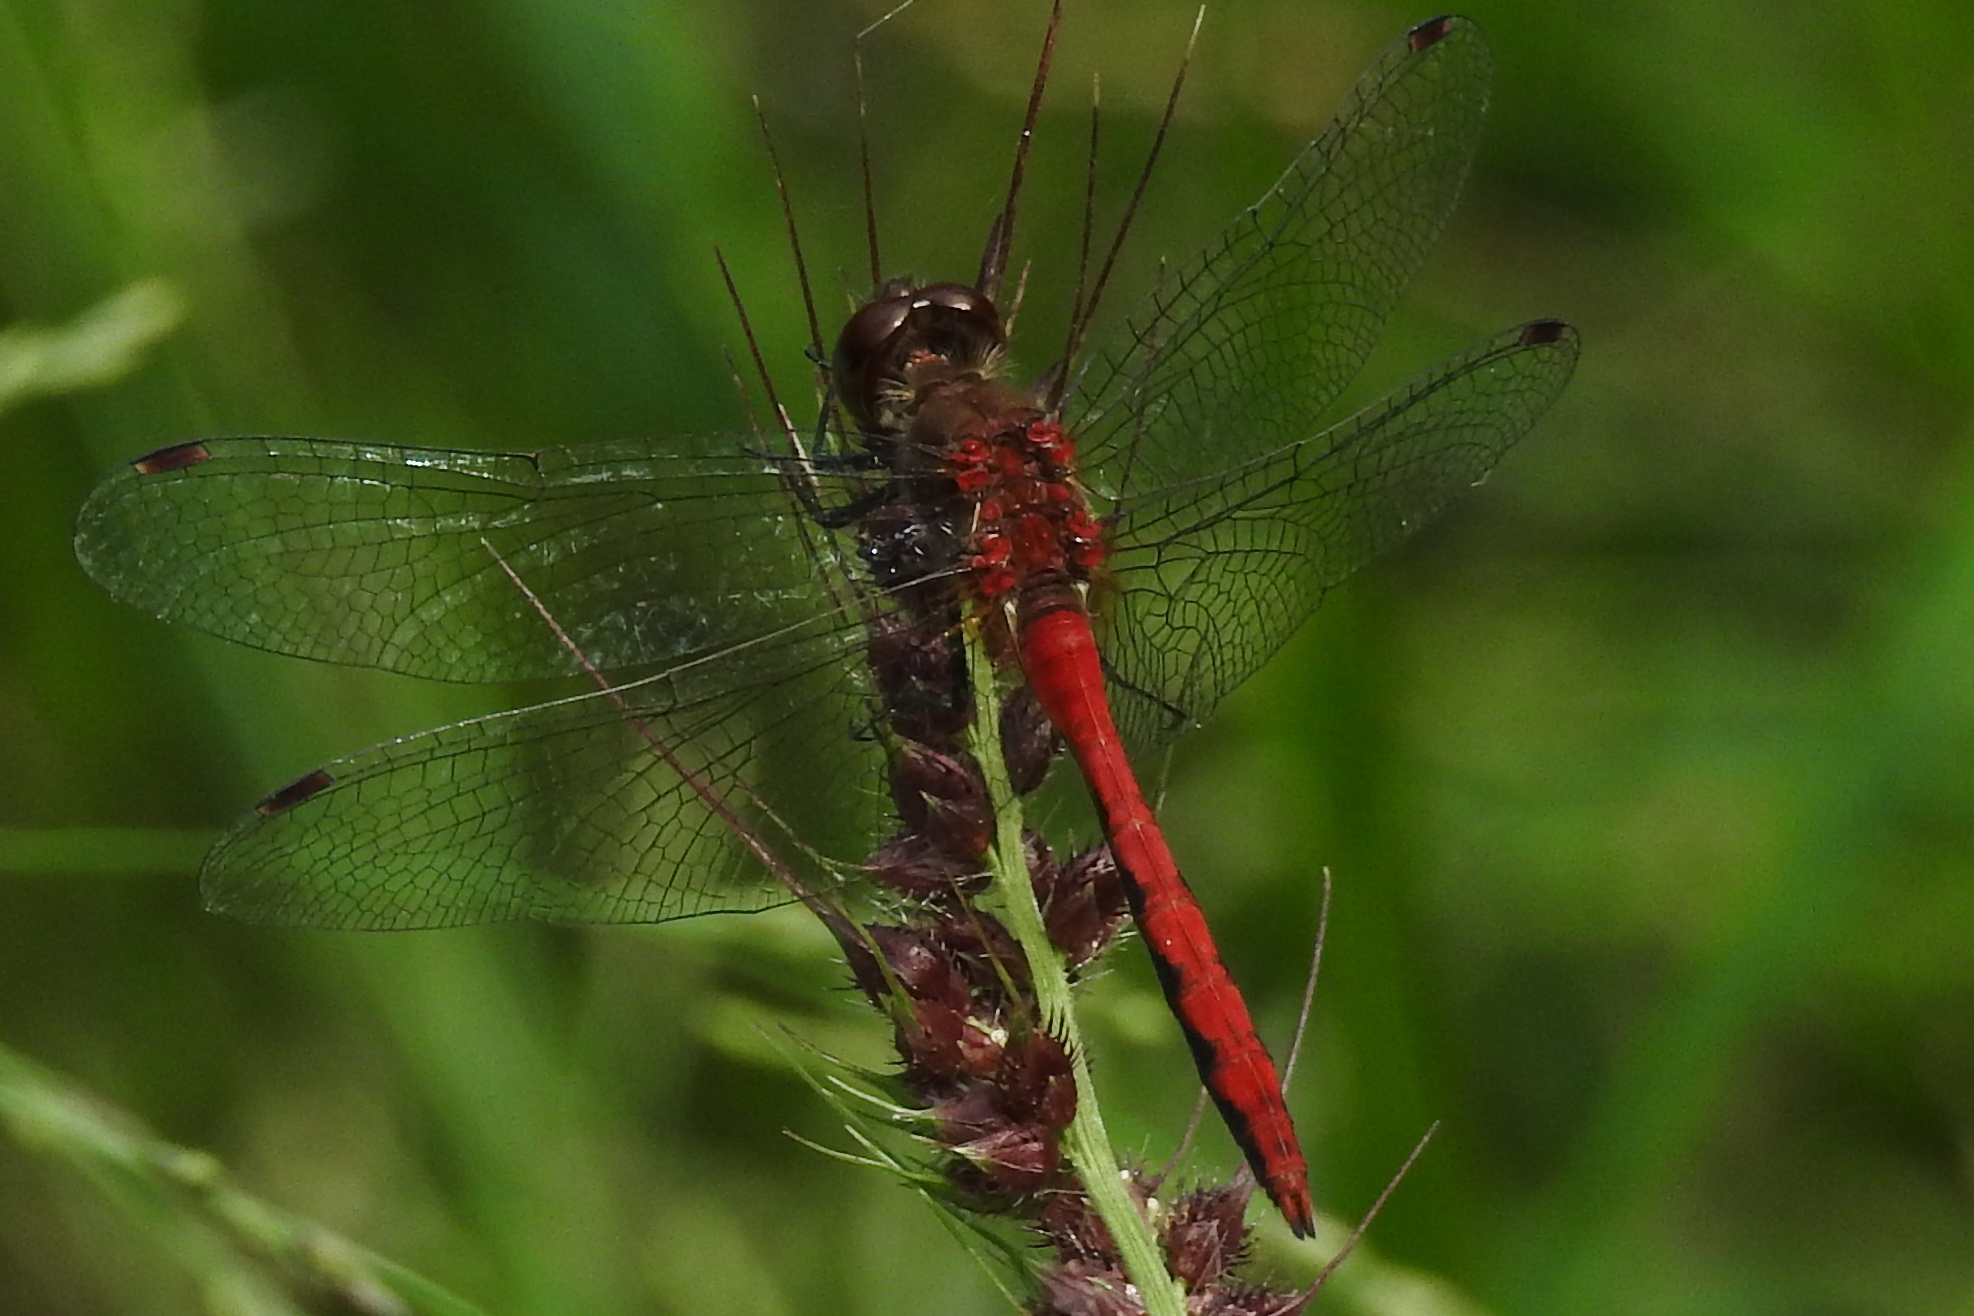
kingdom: Animalia
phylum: Arthropoda
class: Insecta
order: Odonata
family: Libellulidae
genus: Sympetrum
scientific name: Sympetrum
